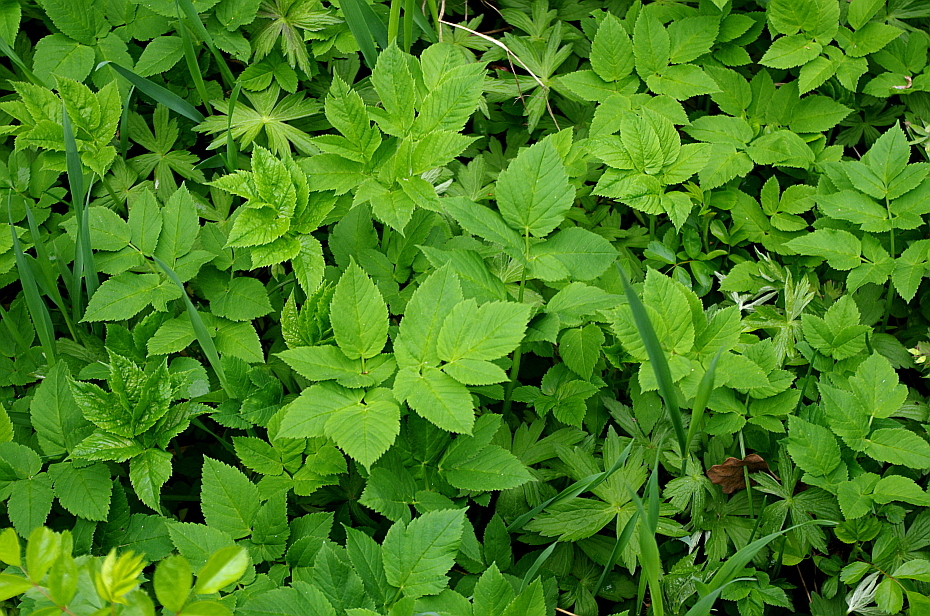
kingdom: Plantae
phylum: Tracheophyta
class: Magnoliopsida
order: Apiales
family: Apiaceae
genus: Aegopodium
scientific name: Aegopodium podagraria
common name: Ground-elder
